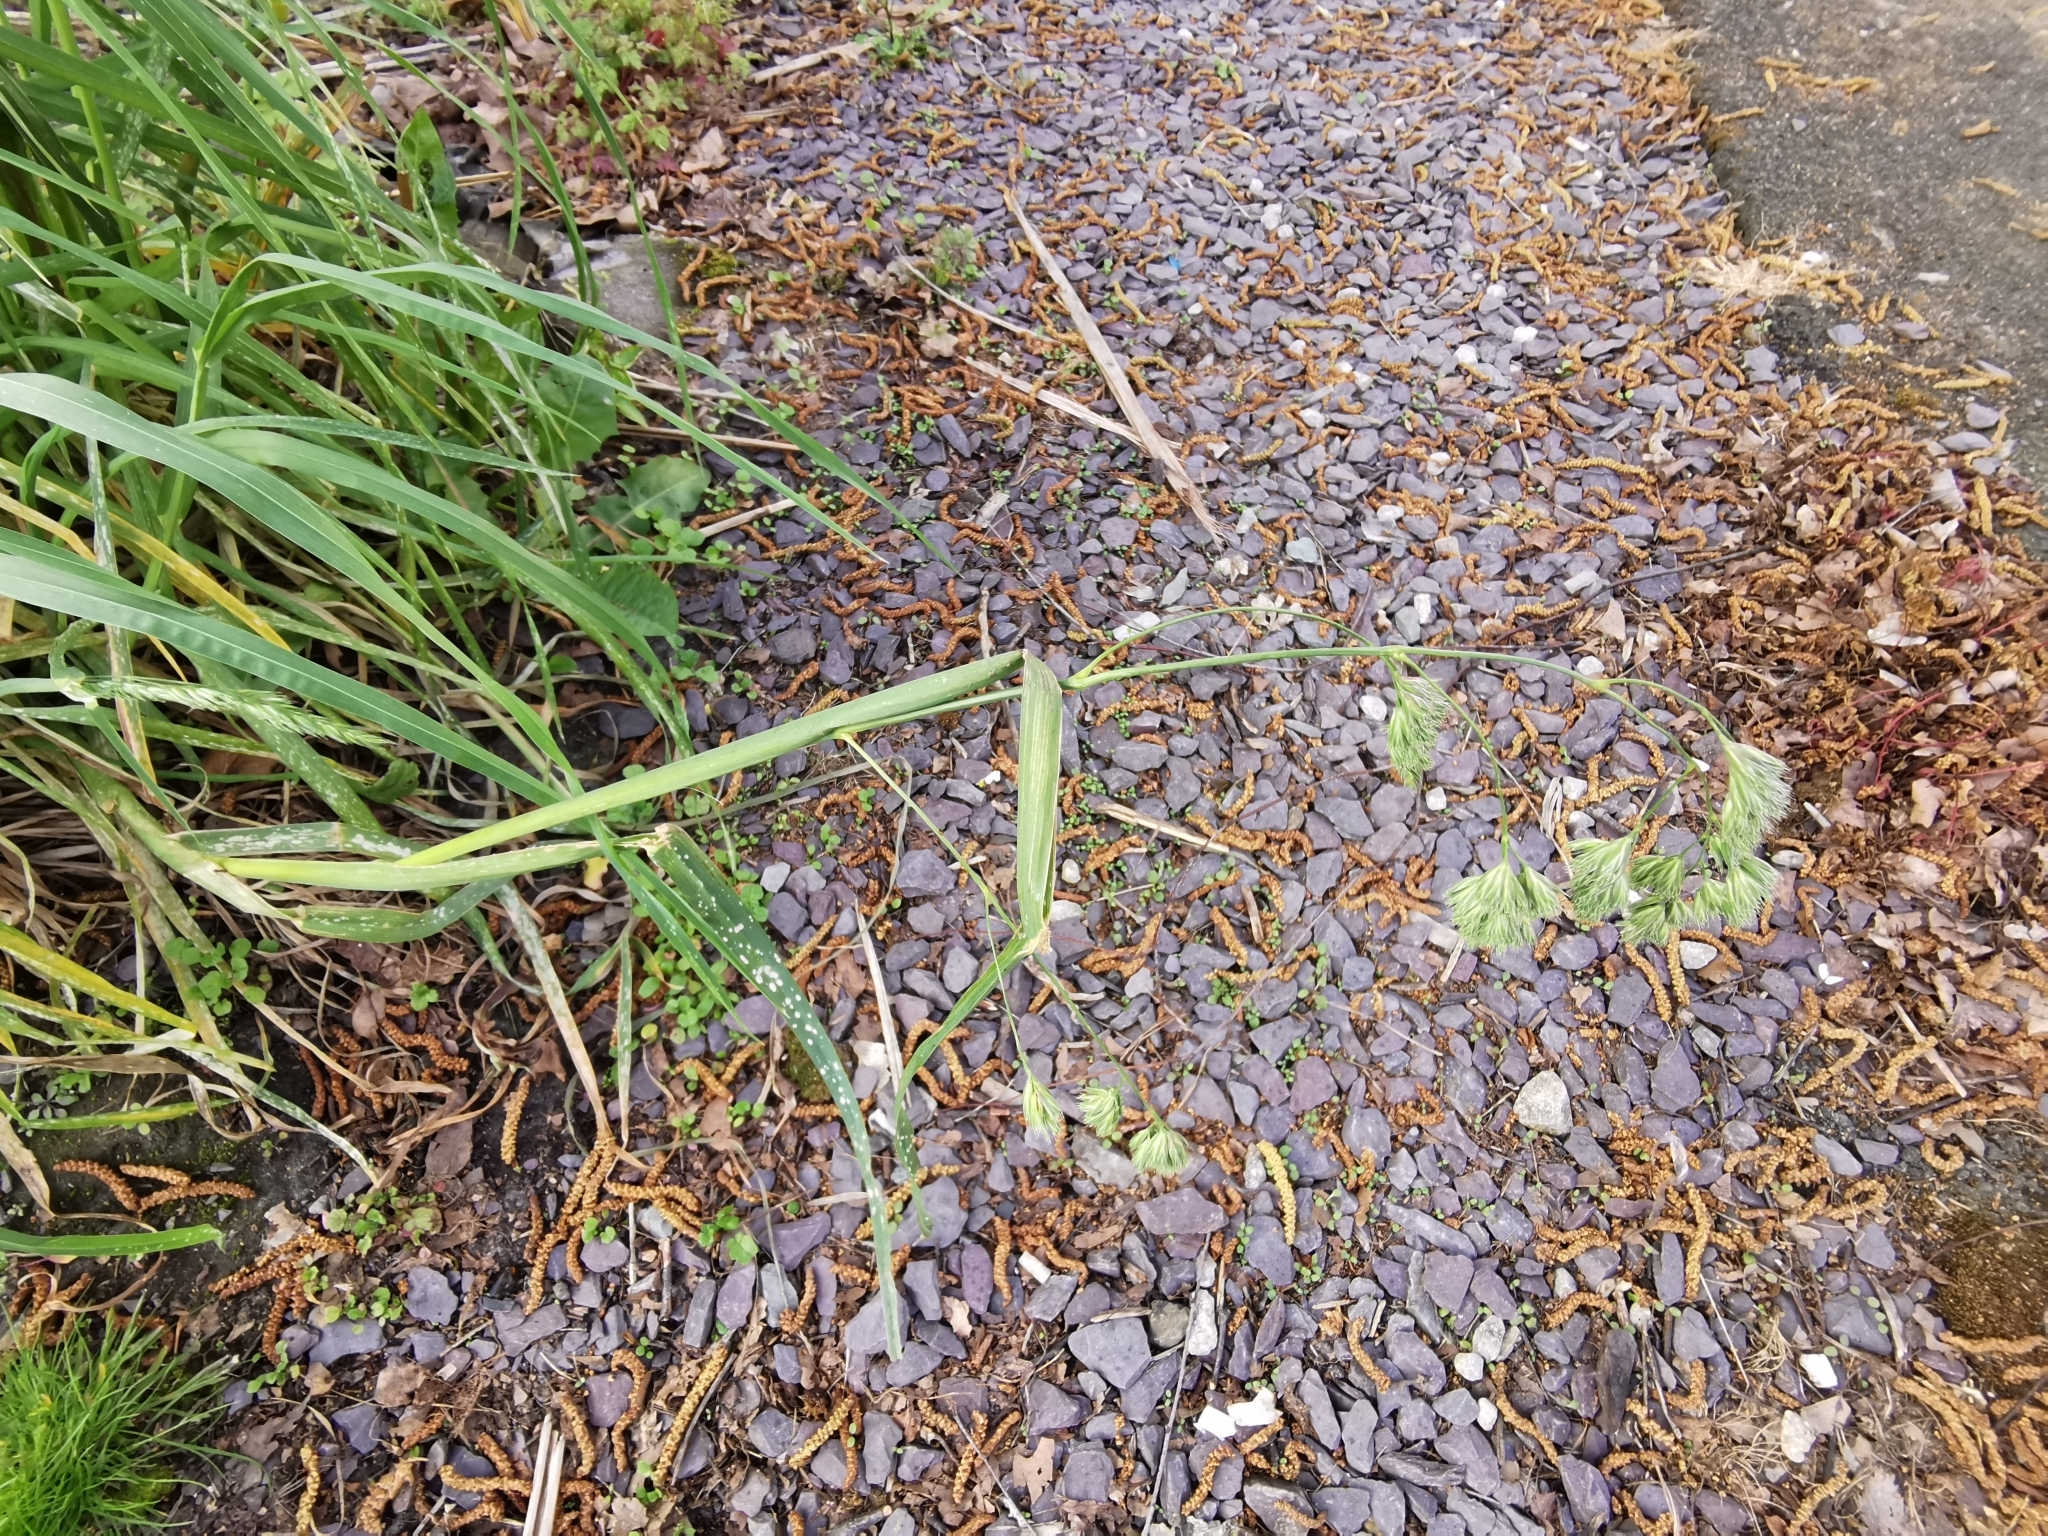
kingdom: Plantae
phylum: Tracheophyta
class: Liliopsida
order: Poales
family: Poaceae
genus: Dactylis
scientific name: Dactylis glomerata
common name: Orchardgrass
